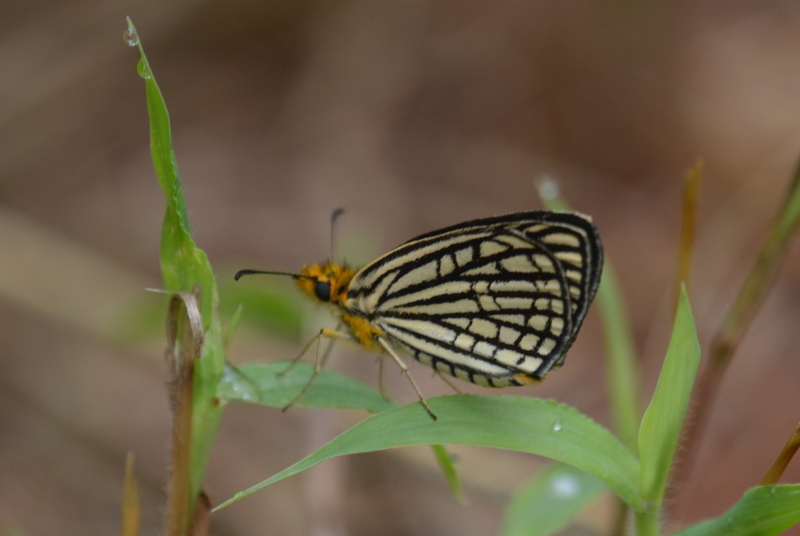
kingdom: Animalia
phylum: Arthropoda
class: Insecta
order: Lepidoptera
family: Hesperiidae
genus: Willema
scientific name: Willema willemi
